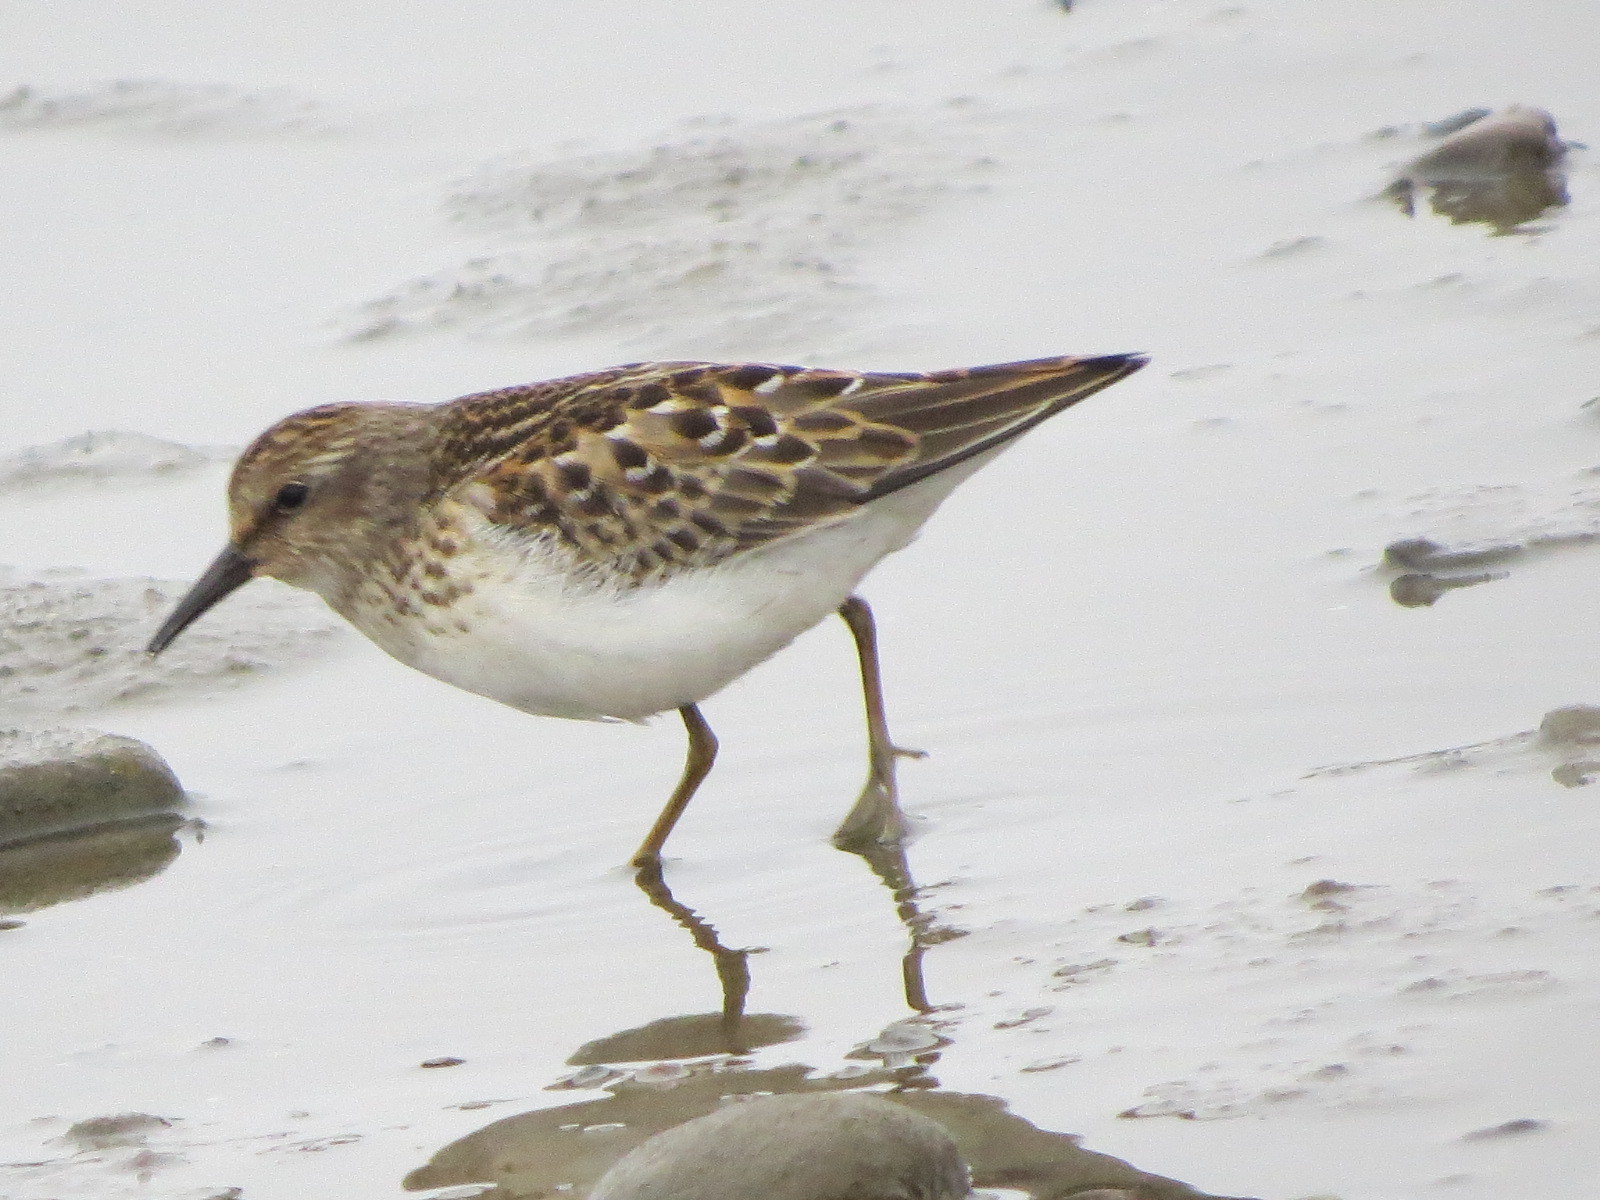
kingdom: Animalia
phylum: Chordata
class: Aves
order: Charadriiformes
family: Scolopacidae
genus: Calidris
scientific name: Calidris minutilla
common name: Least sandpiper
